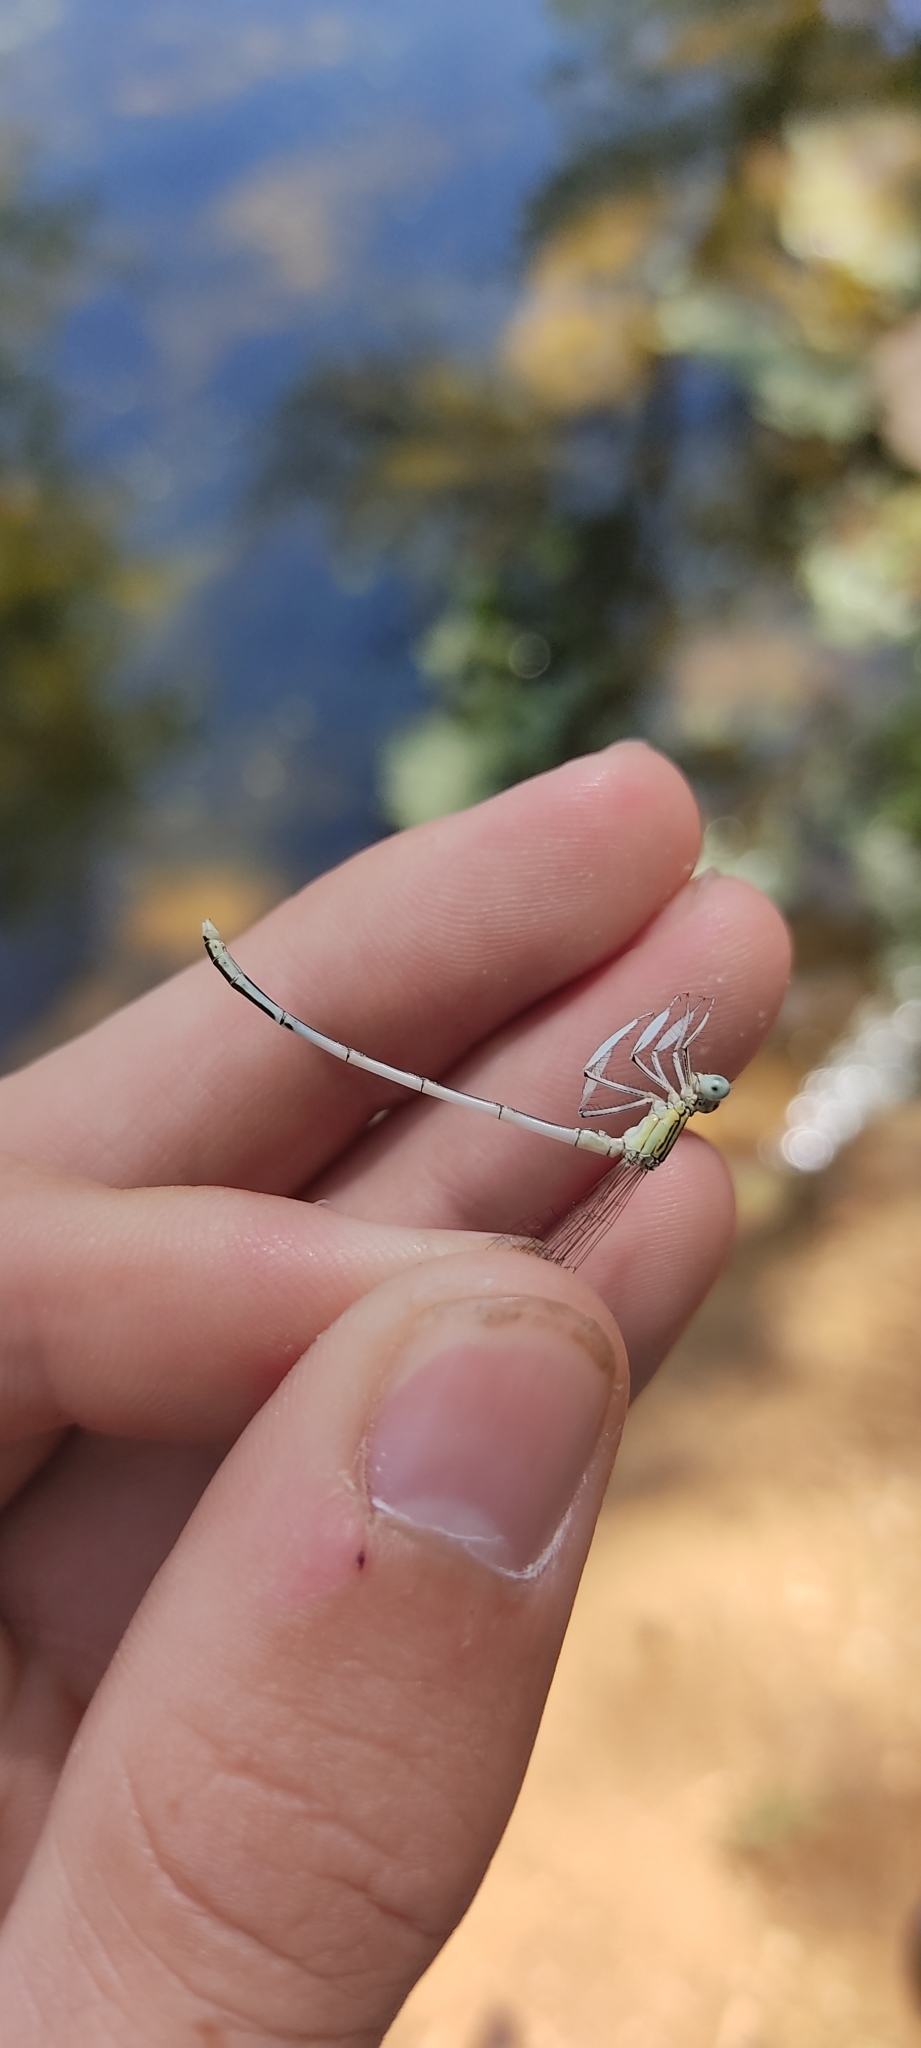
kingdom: Animalia
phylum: Arthropoda
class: Insecta
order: Odonata
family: Platycnemididae
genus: Platycnemis
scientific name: Platycnemis latipes
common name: White featherleg
